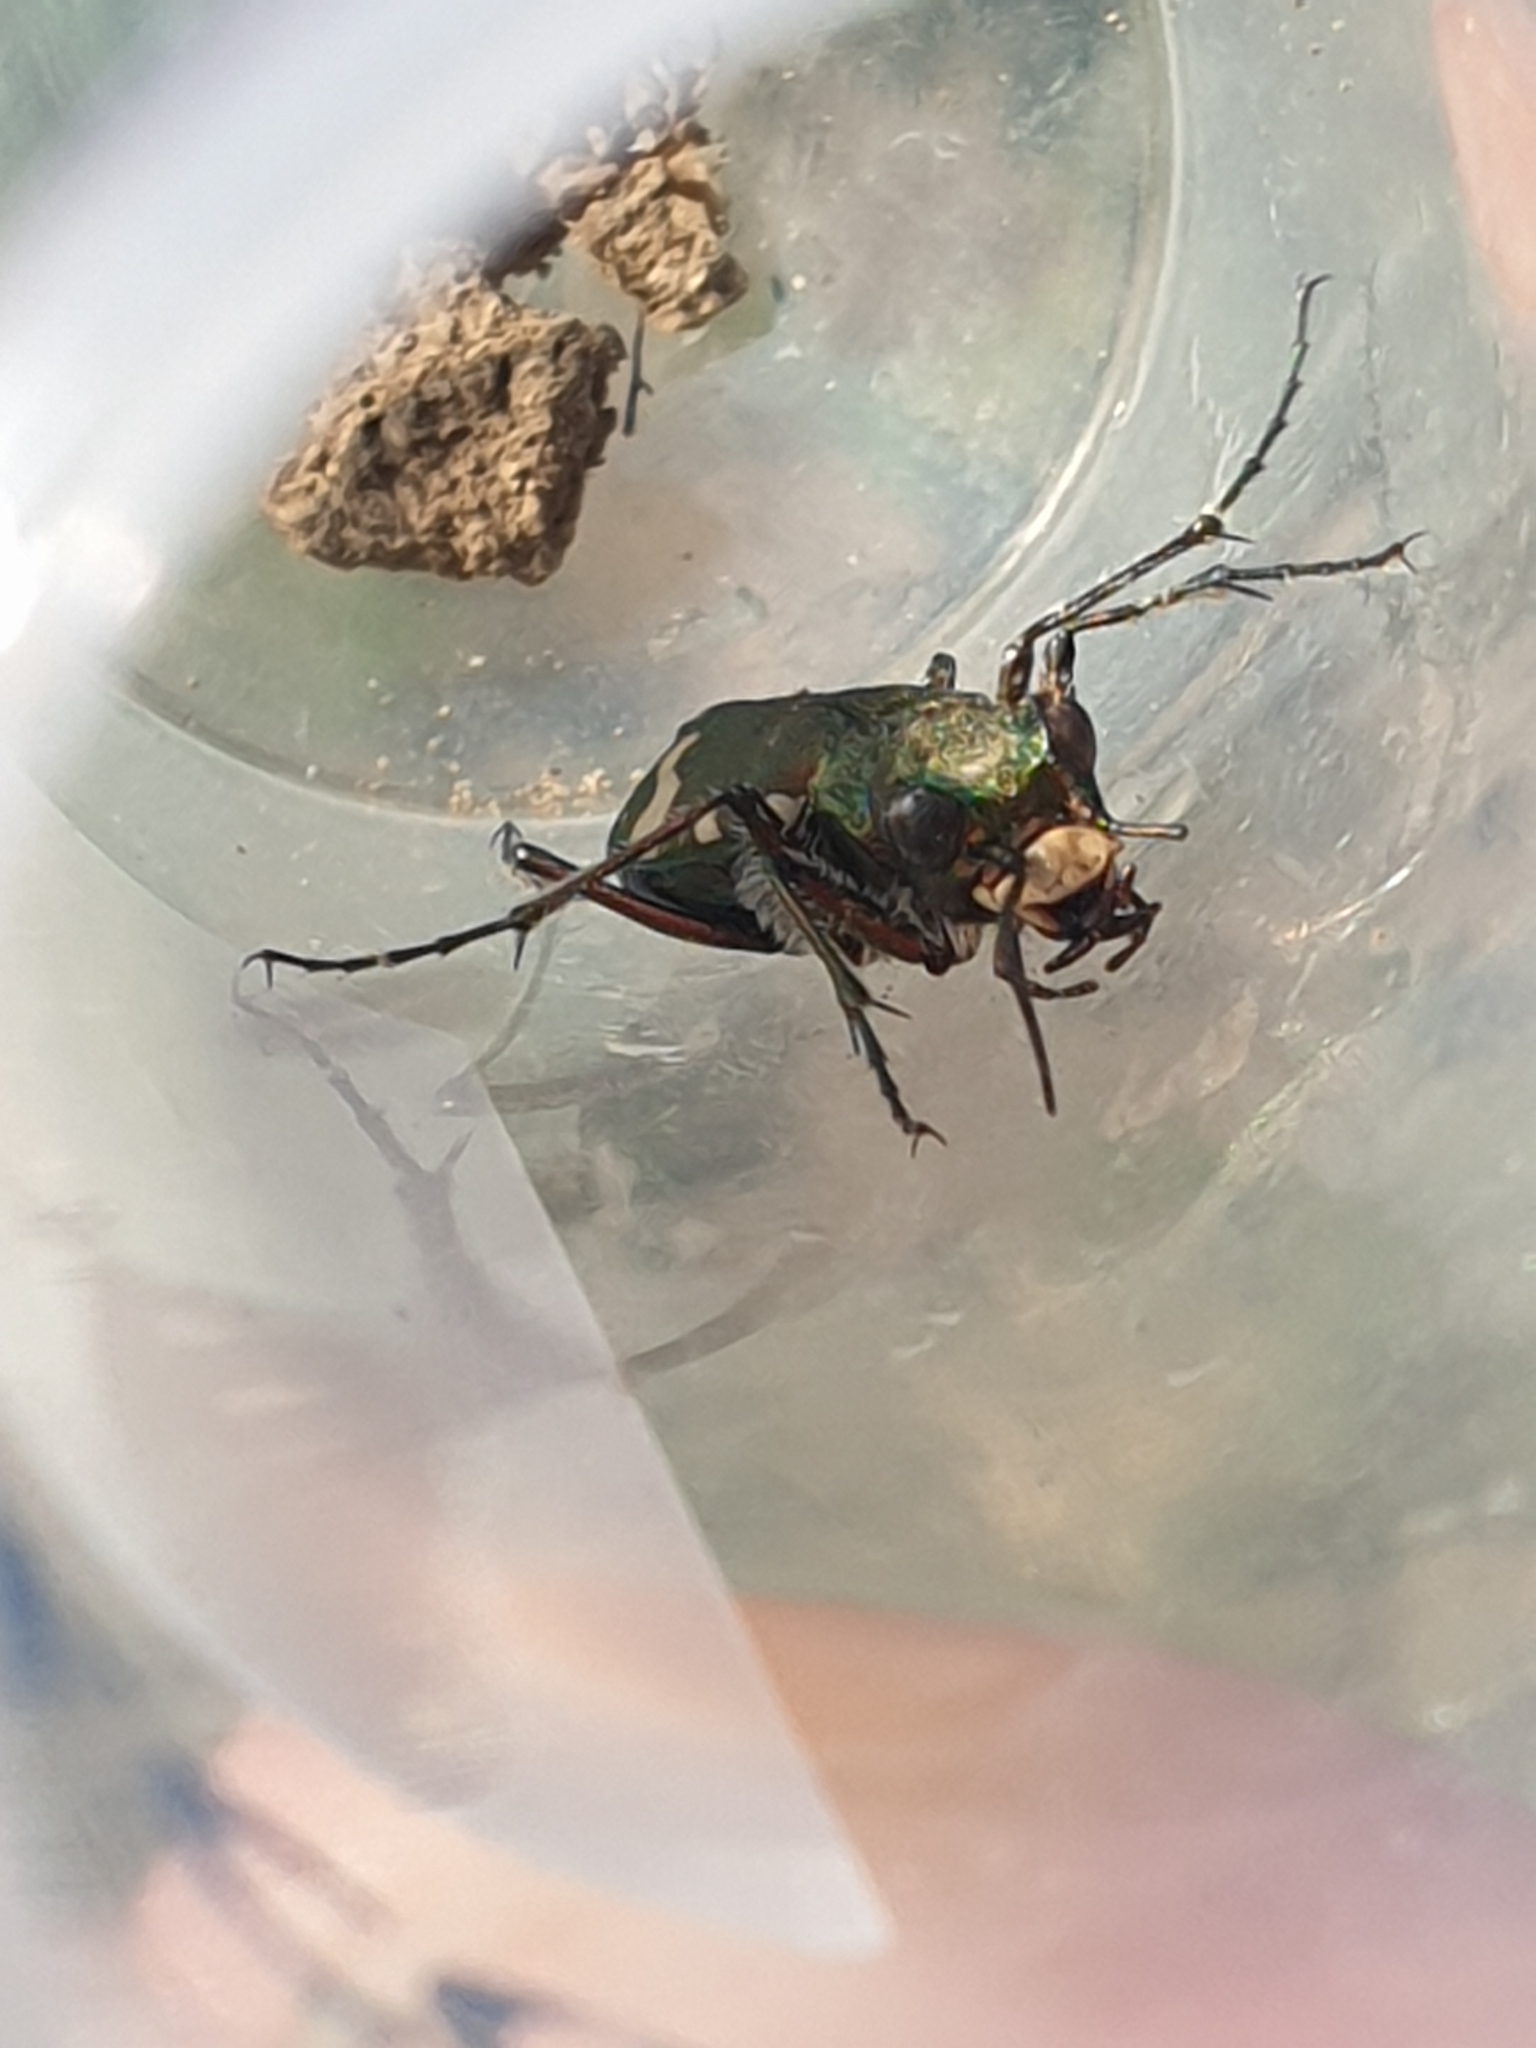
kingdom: Animalia
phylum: Arthropoda
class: Insecta
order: Coleoptera
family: Carabidae
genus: Cicindela
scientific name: Cicindela sylvicola
